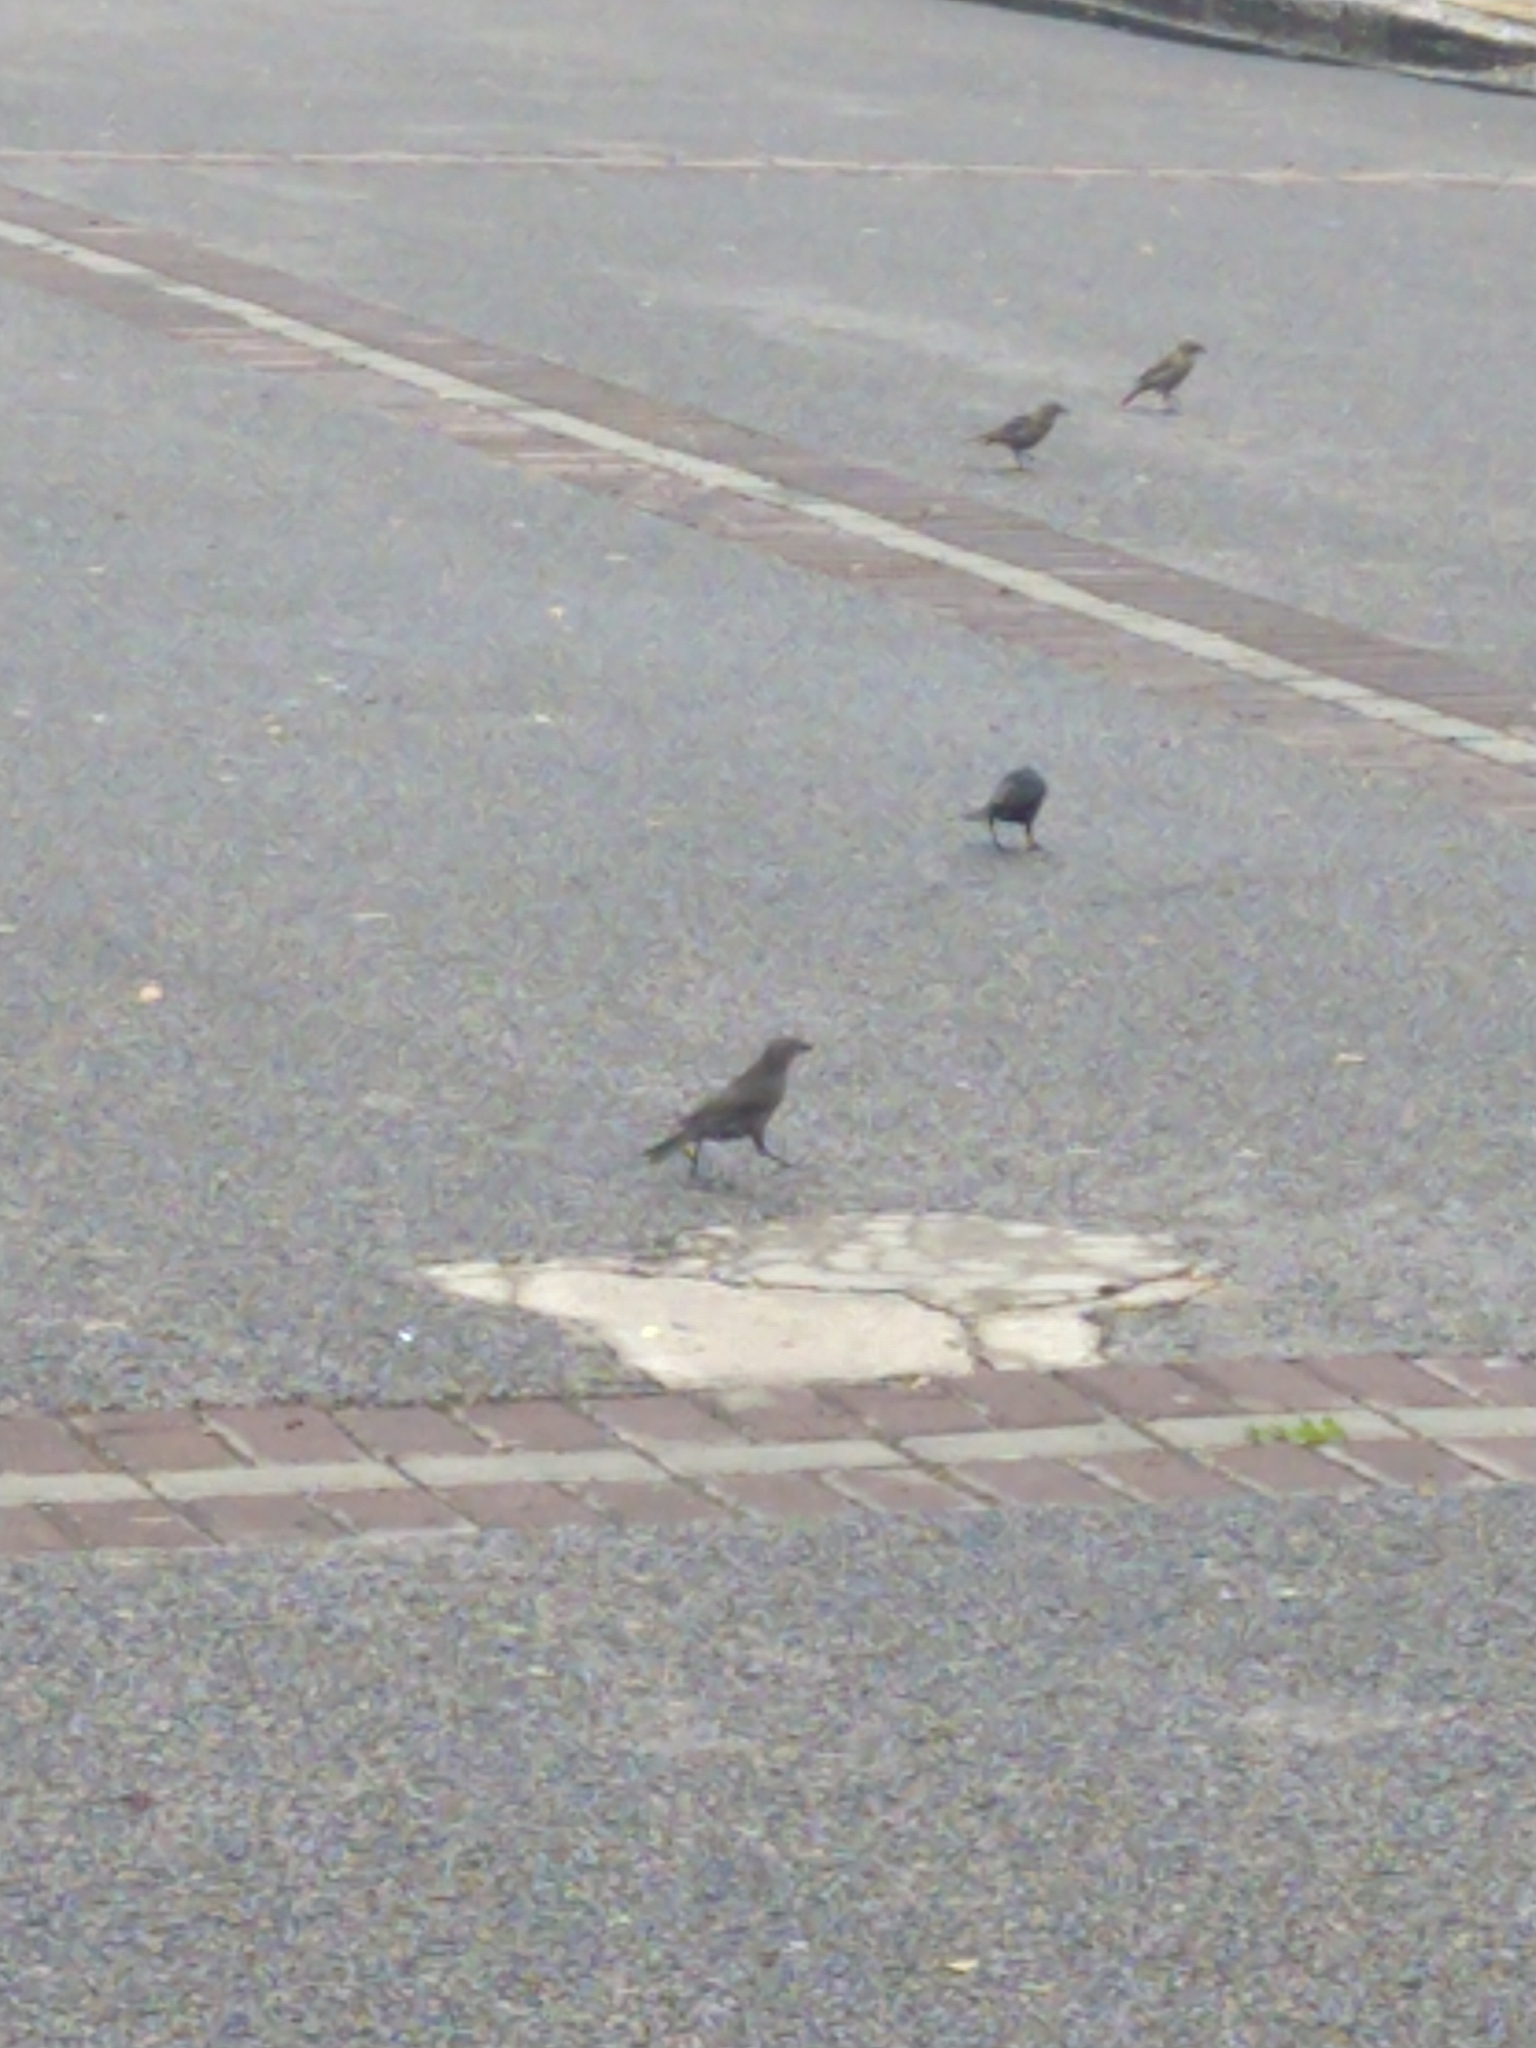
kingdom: Animalia
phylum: Chordata
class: Aves
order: Passeriformes
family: Icteridae
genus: Molothrus
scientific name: Molothrus bonariensis
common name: Shiny cowbird
